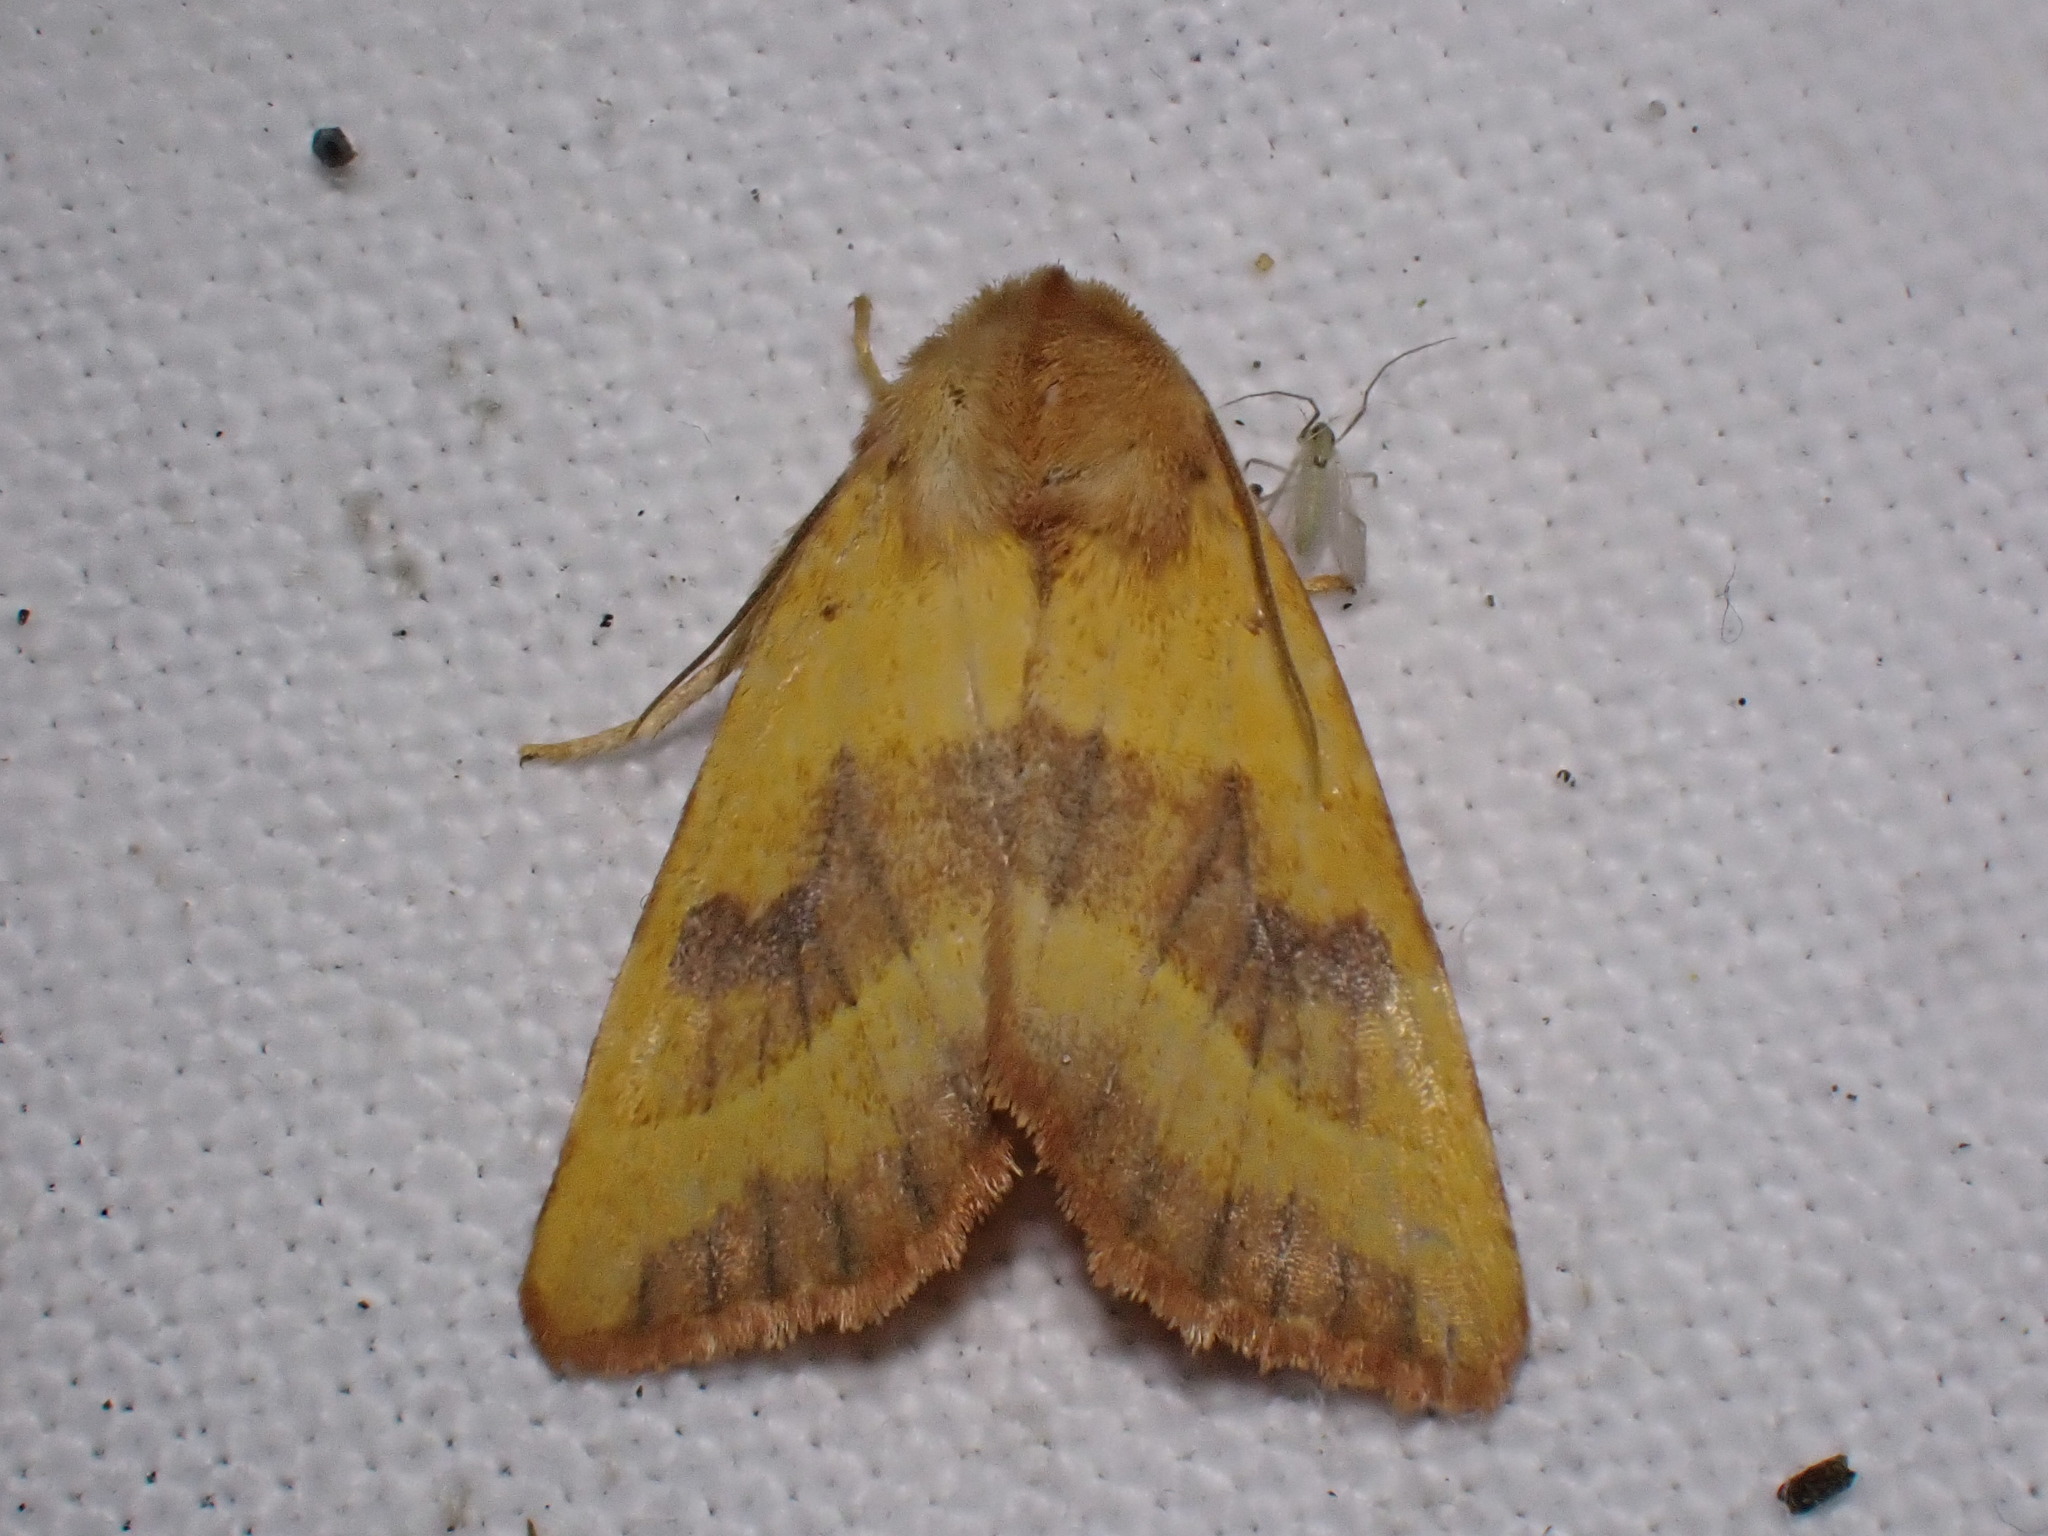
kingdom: Animalia
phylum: Arthropoda
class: Insecta
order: Lepidoptera
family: Noctuidae
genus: Atethmia
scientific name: Atethmia centrago
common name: Centre-barred sallow
